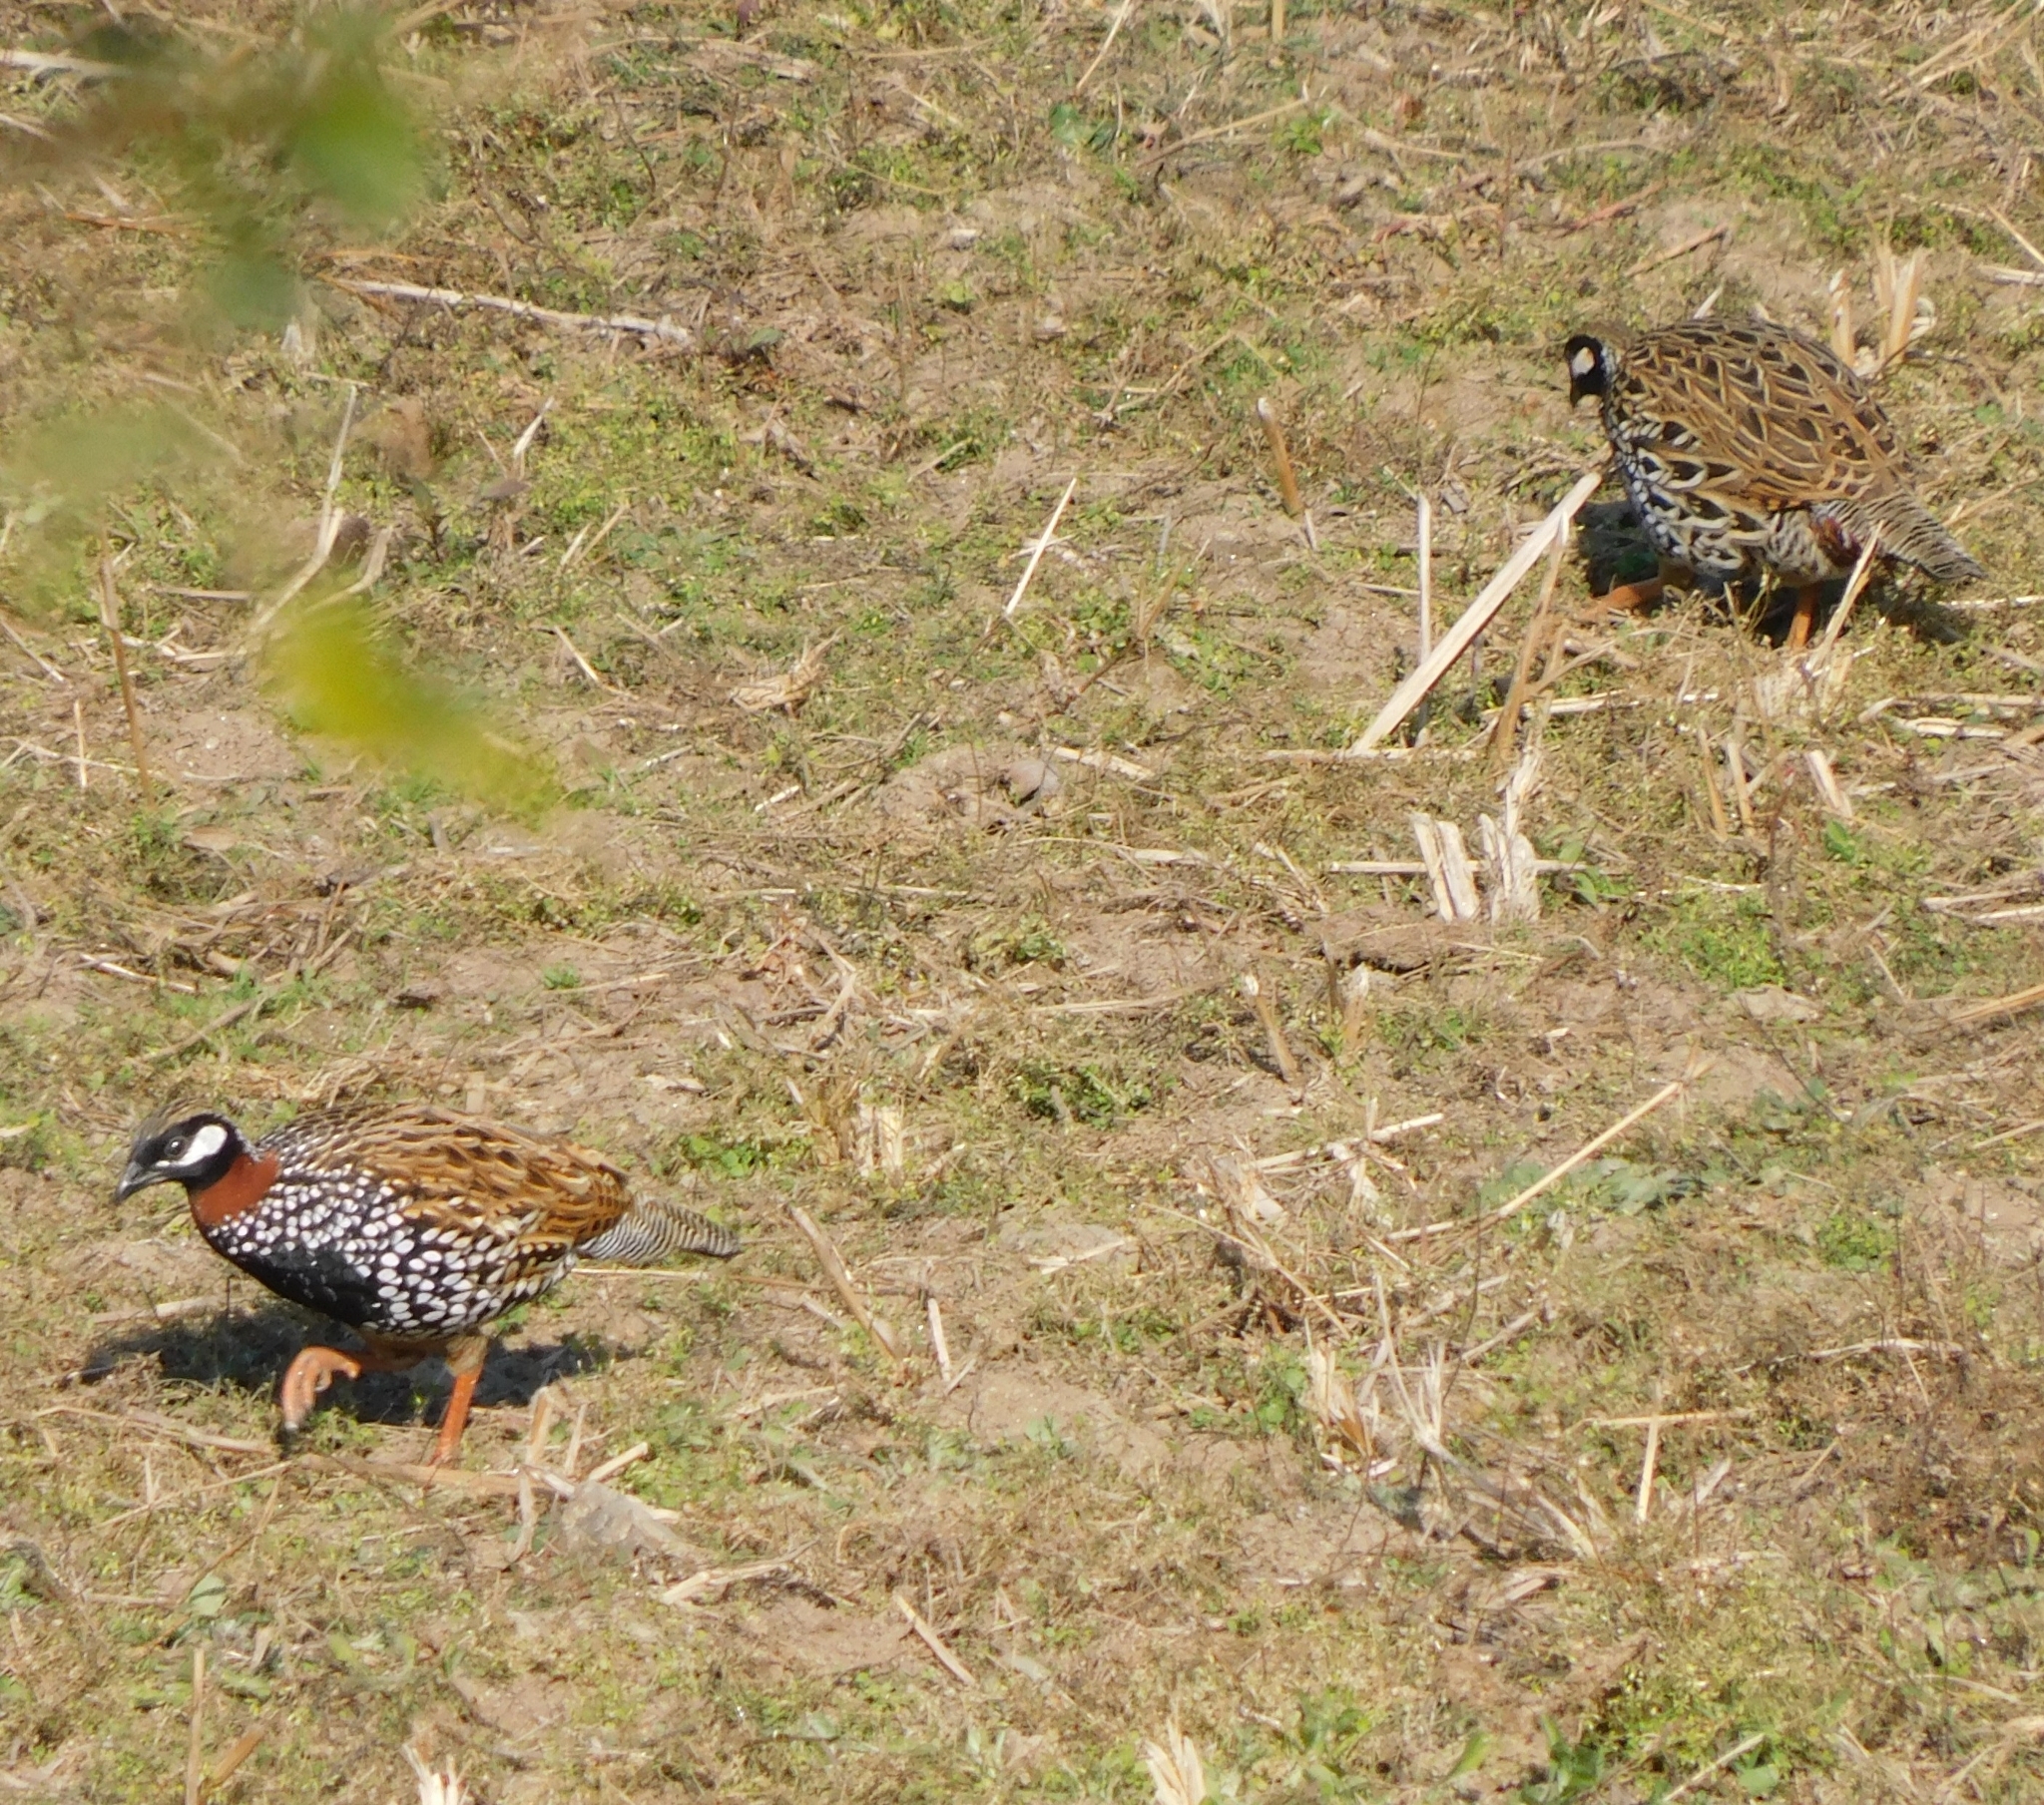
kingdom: Animalia
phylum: Chordata
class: Aves
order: Galliformes
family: Phasianidae
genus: Francolinus
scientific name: Francolinus francolinus
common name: Black francolin
